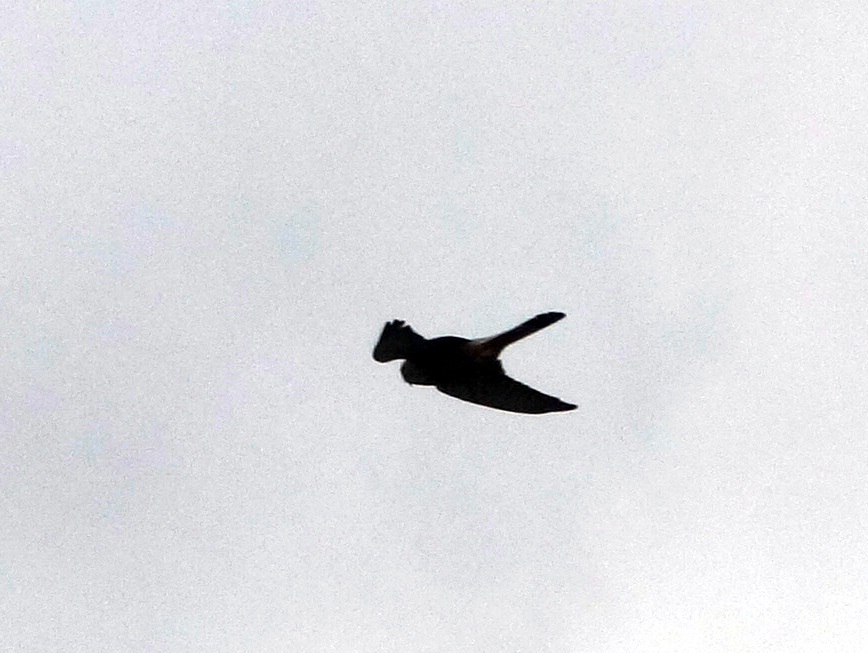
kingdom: Animalia
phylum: Chordata
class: Aves
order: Falconiformes
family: Falconidae
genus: Falco
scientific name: Falco tinnunculus
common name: Common kestrel
